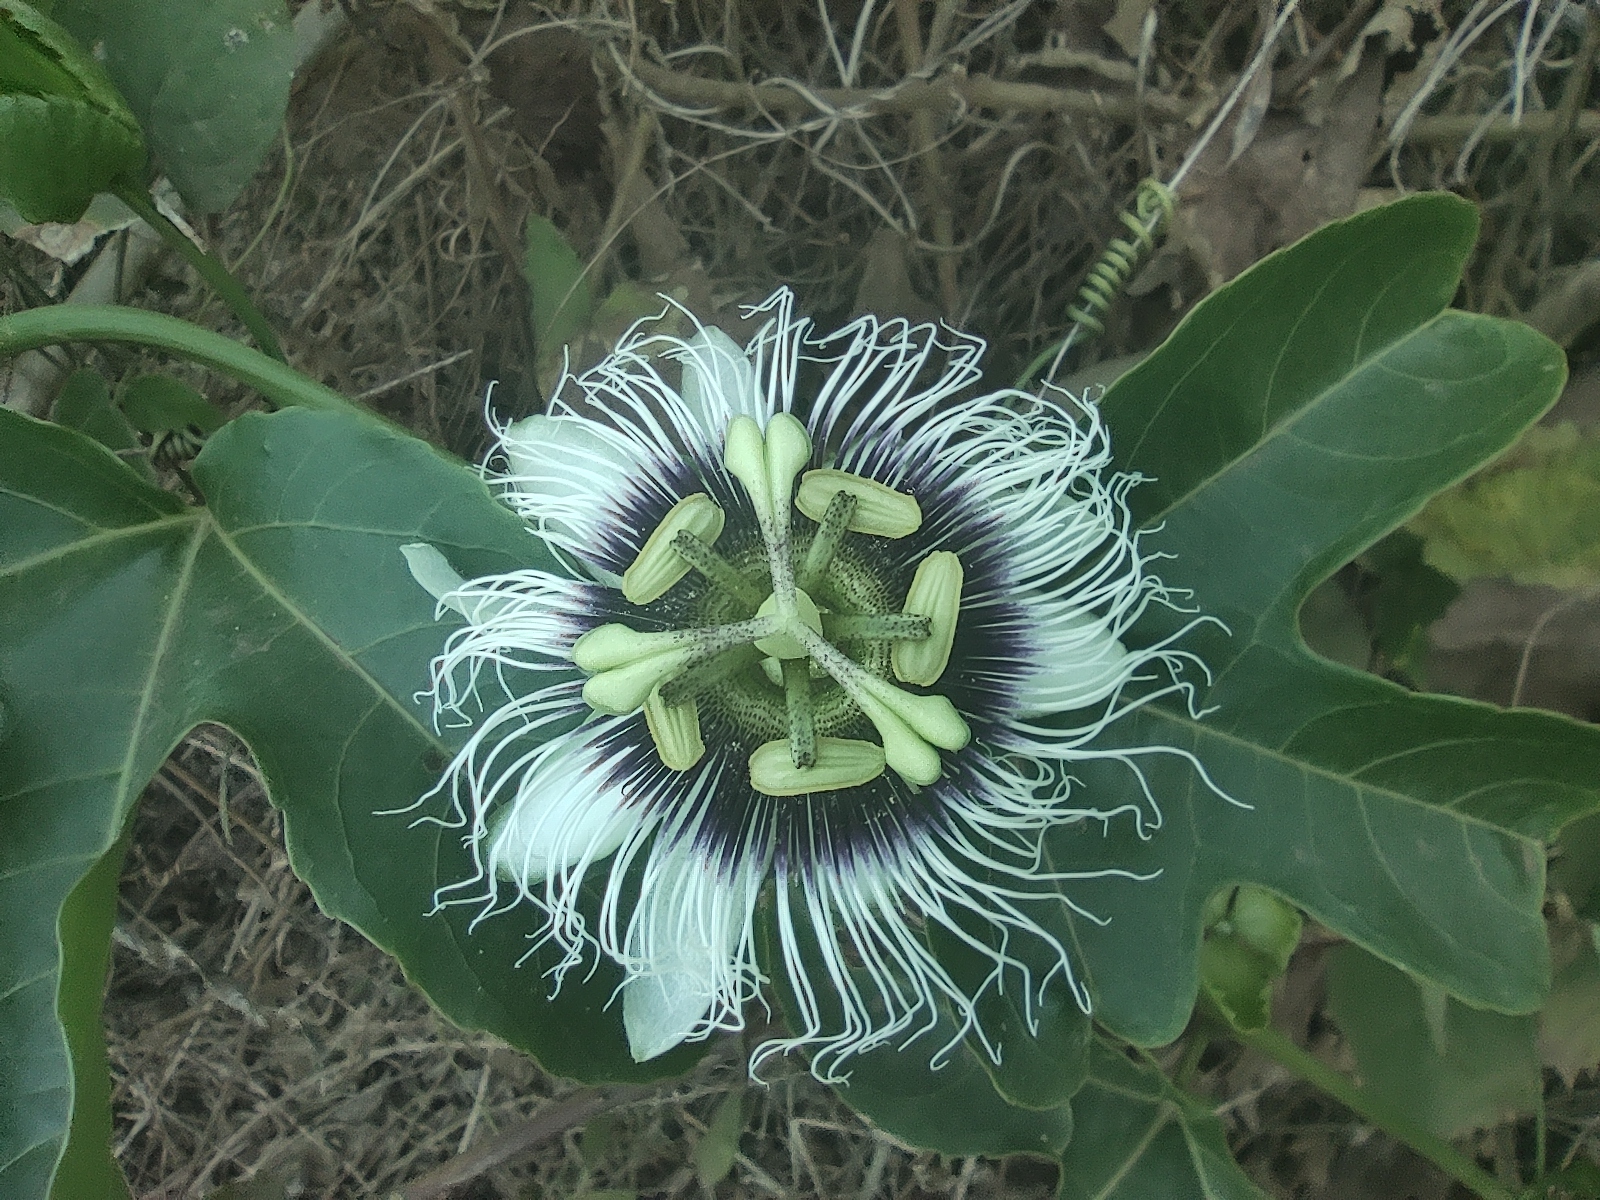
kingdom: Plantae
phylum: Tracheophyta
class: Magnoliopsida
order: Malpighiales
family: Passifloraceae
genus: Passiflora
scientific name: Passiflora edulis
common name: Purple granadilla
